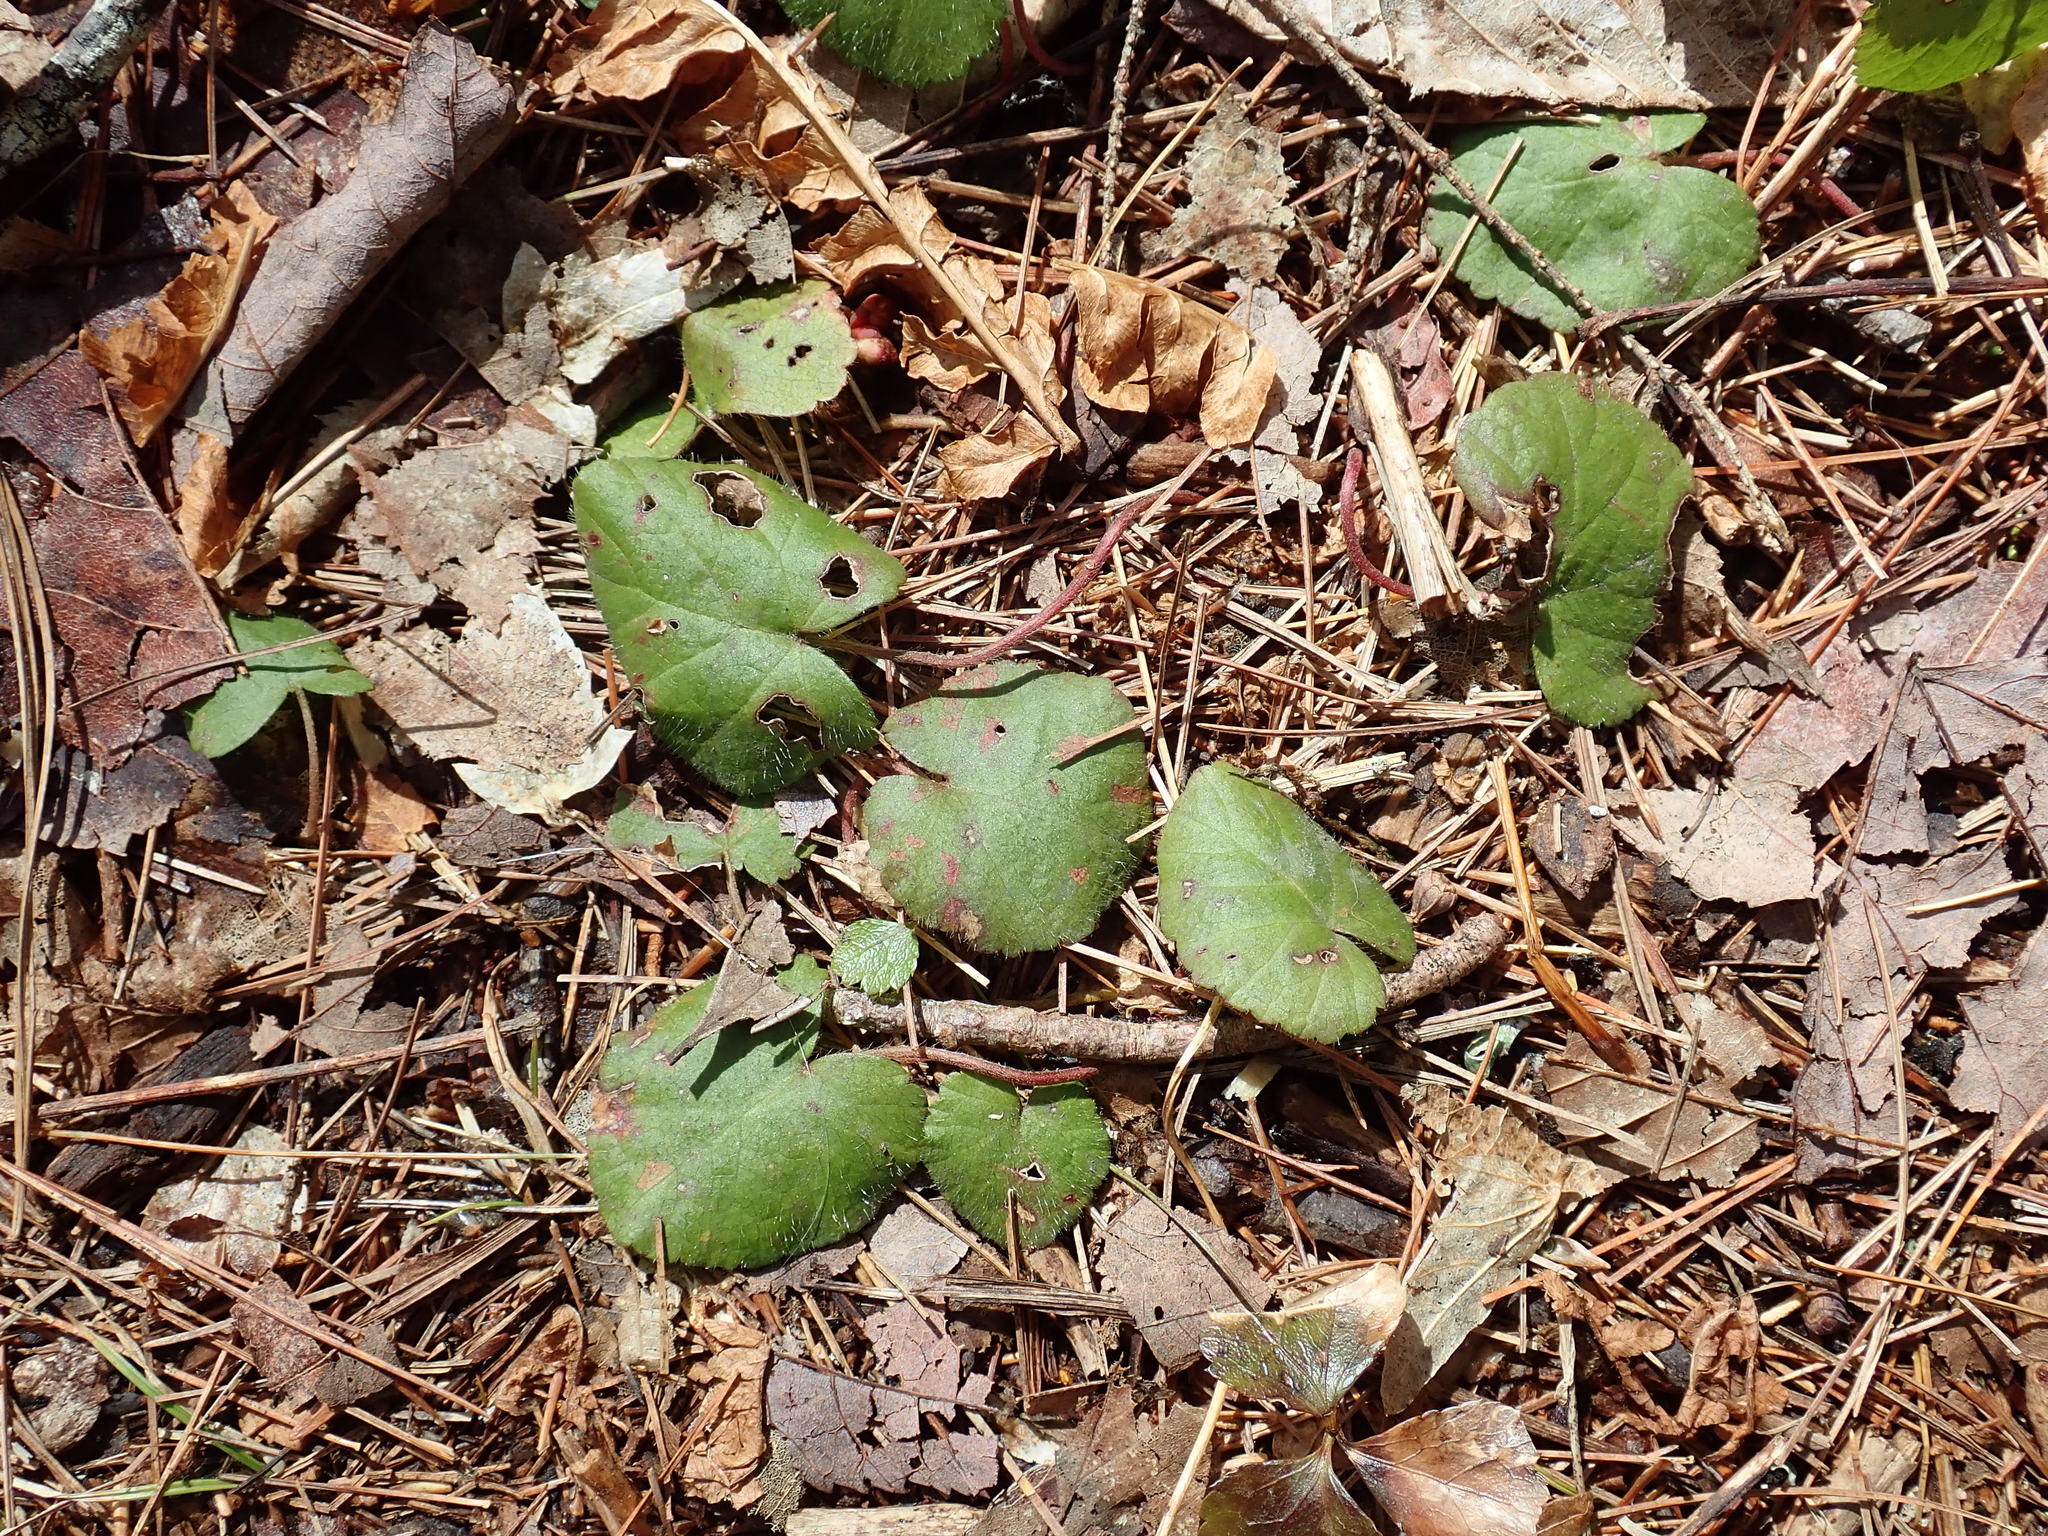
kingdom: Plantae
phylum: Tracheophyta
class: Magnoliopsida
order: Rosales
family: Rosaceae
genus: Dalibarda
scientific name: Dalibarda repens
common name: Dewdrop
